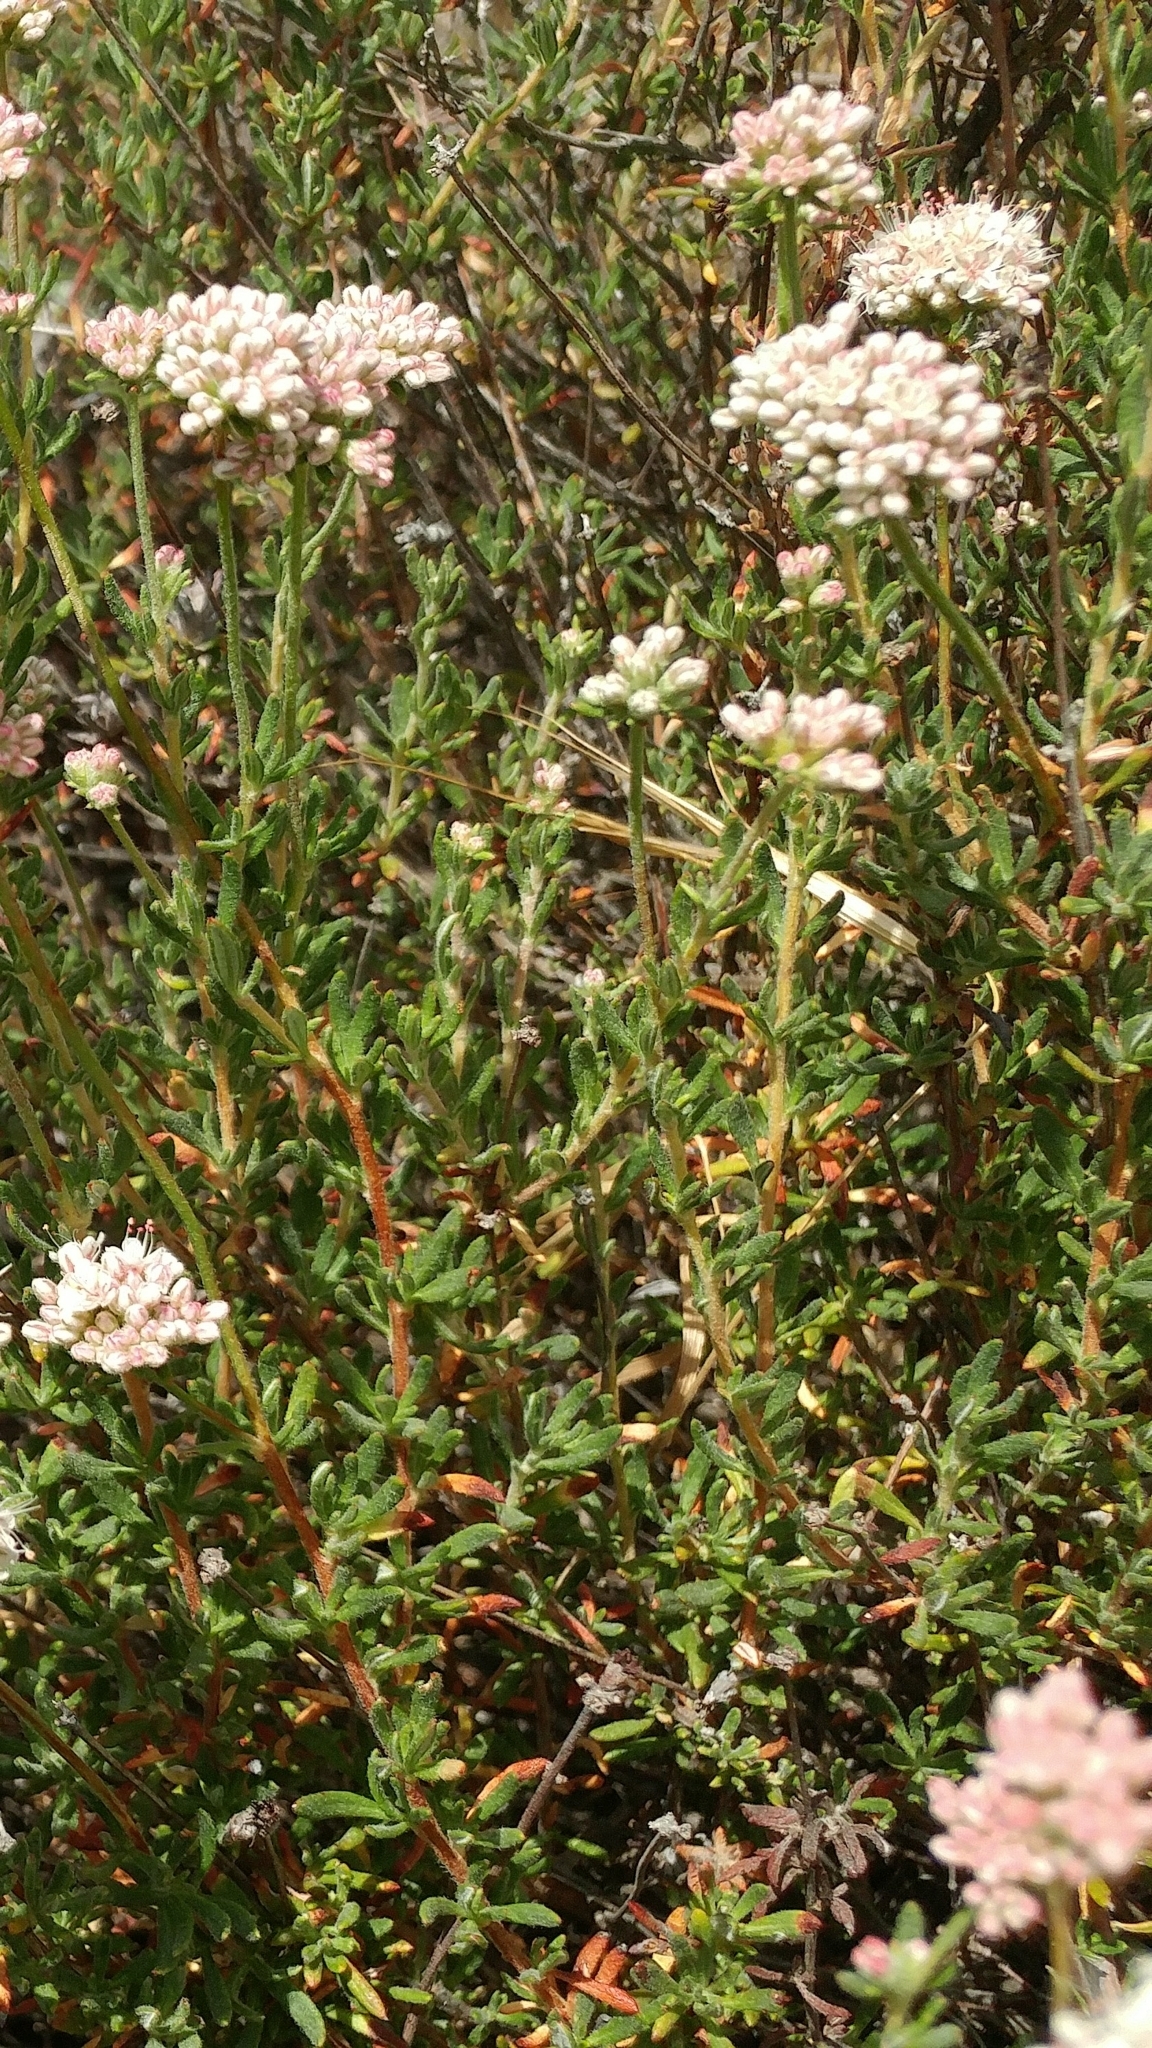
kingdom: Plantae
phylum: Tracheophyta
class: Magnoliopsida
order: Caryophyllales
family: Polygonaceae
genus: Eriogonum
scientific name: Eriogonum fasciculatum
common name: California wild buckwheat
